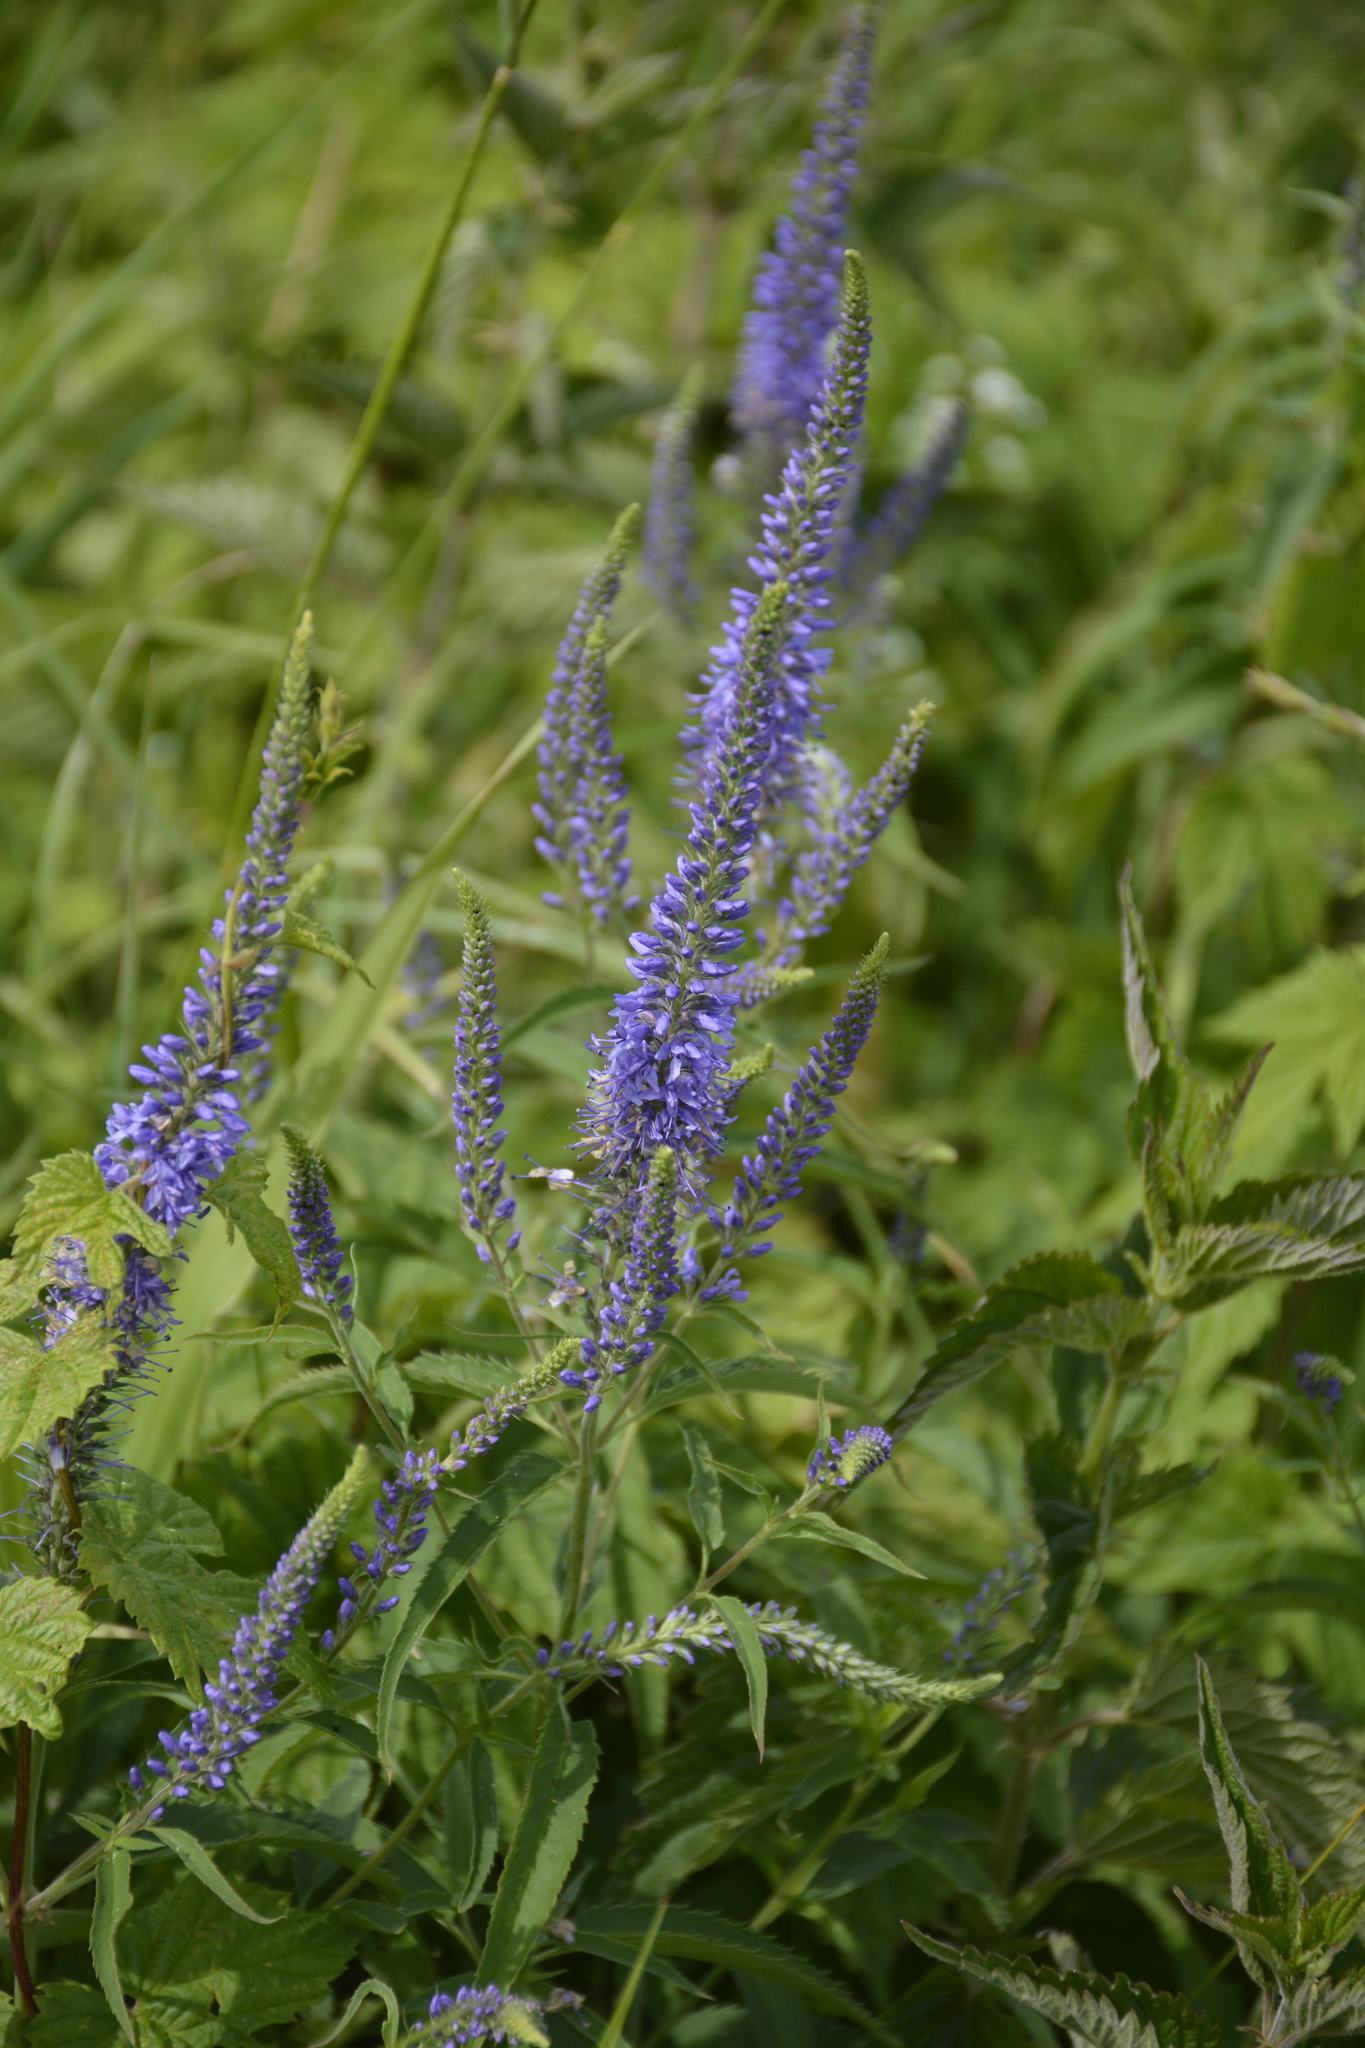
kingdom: Plantae
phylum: Tracheophyta
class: Magnoliopsida
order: Lamiales
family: Plantaginaceae
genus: Veronica
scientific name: Veronica longifolia
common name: Garden speedwell
